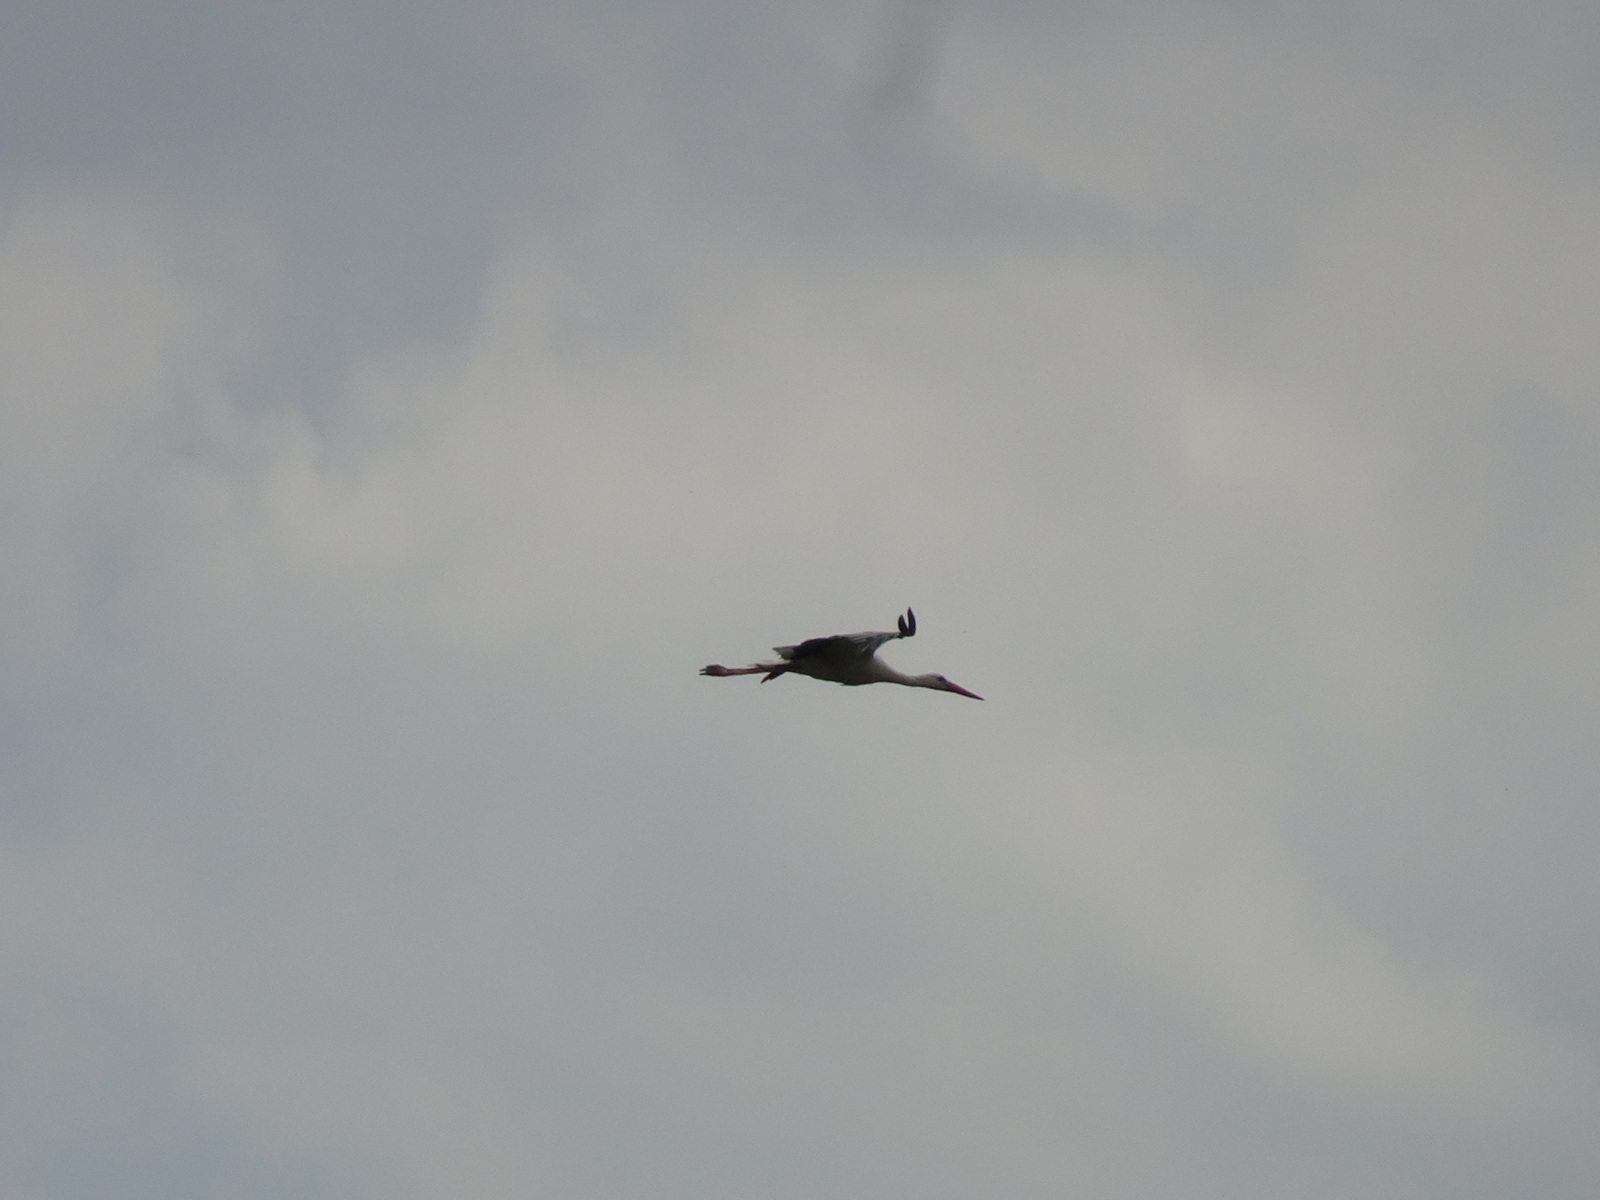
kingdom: Animalia
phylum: Chordata
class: Aves
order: Ciconiiformes
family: Ciconiidae
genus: Ciconia
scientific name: Ciconia ciconia
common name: White stork
